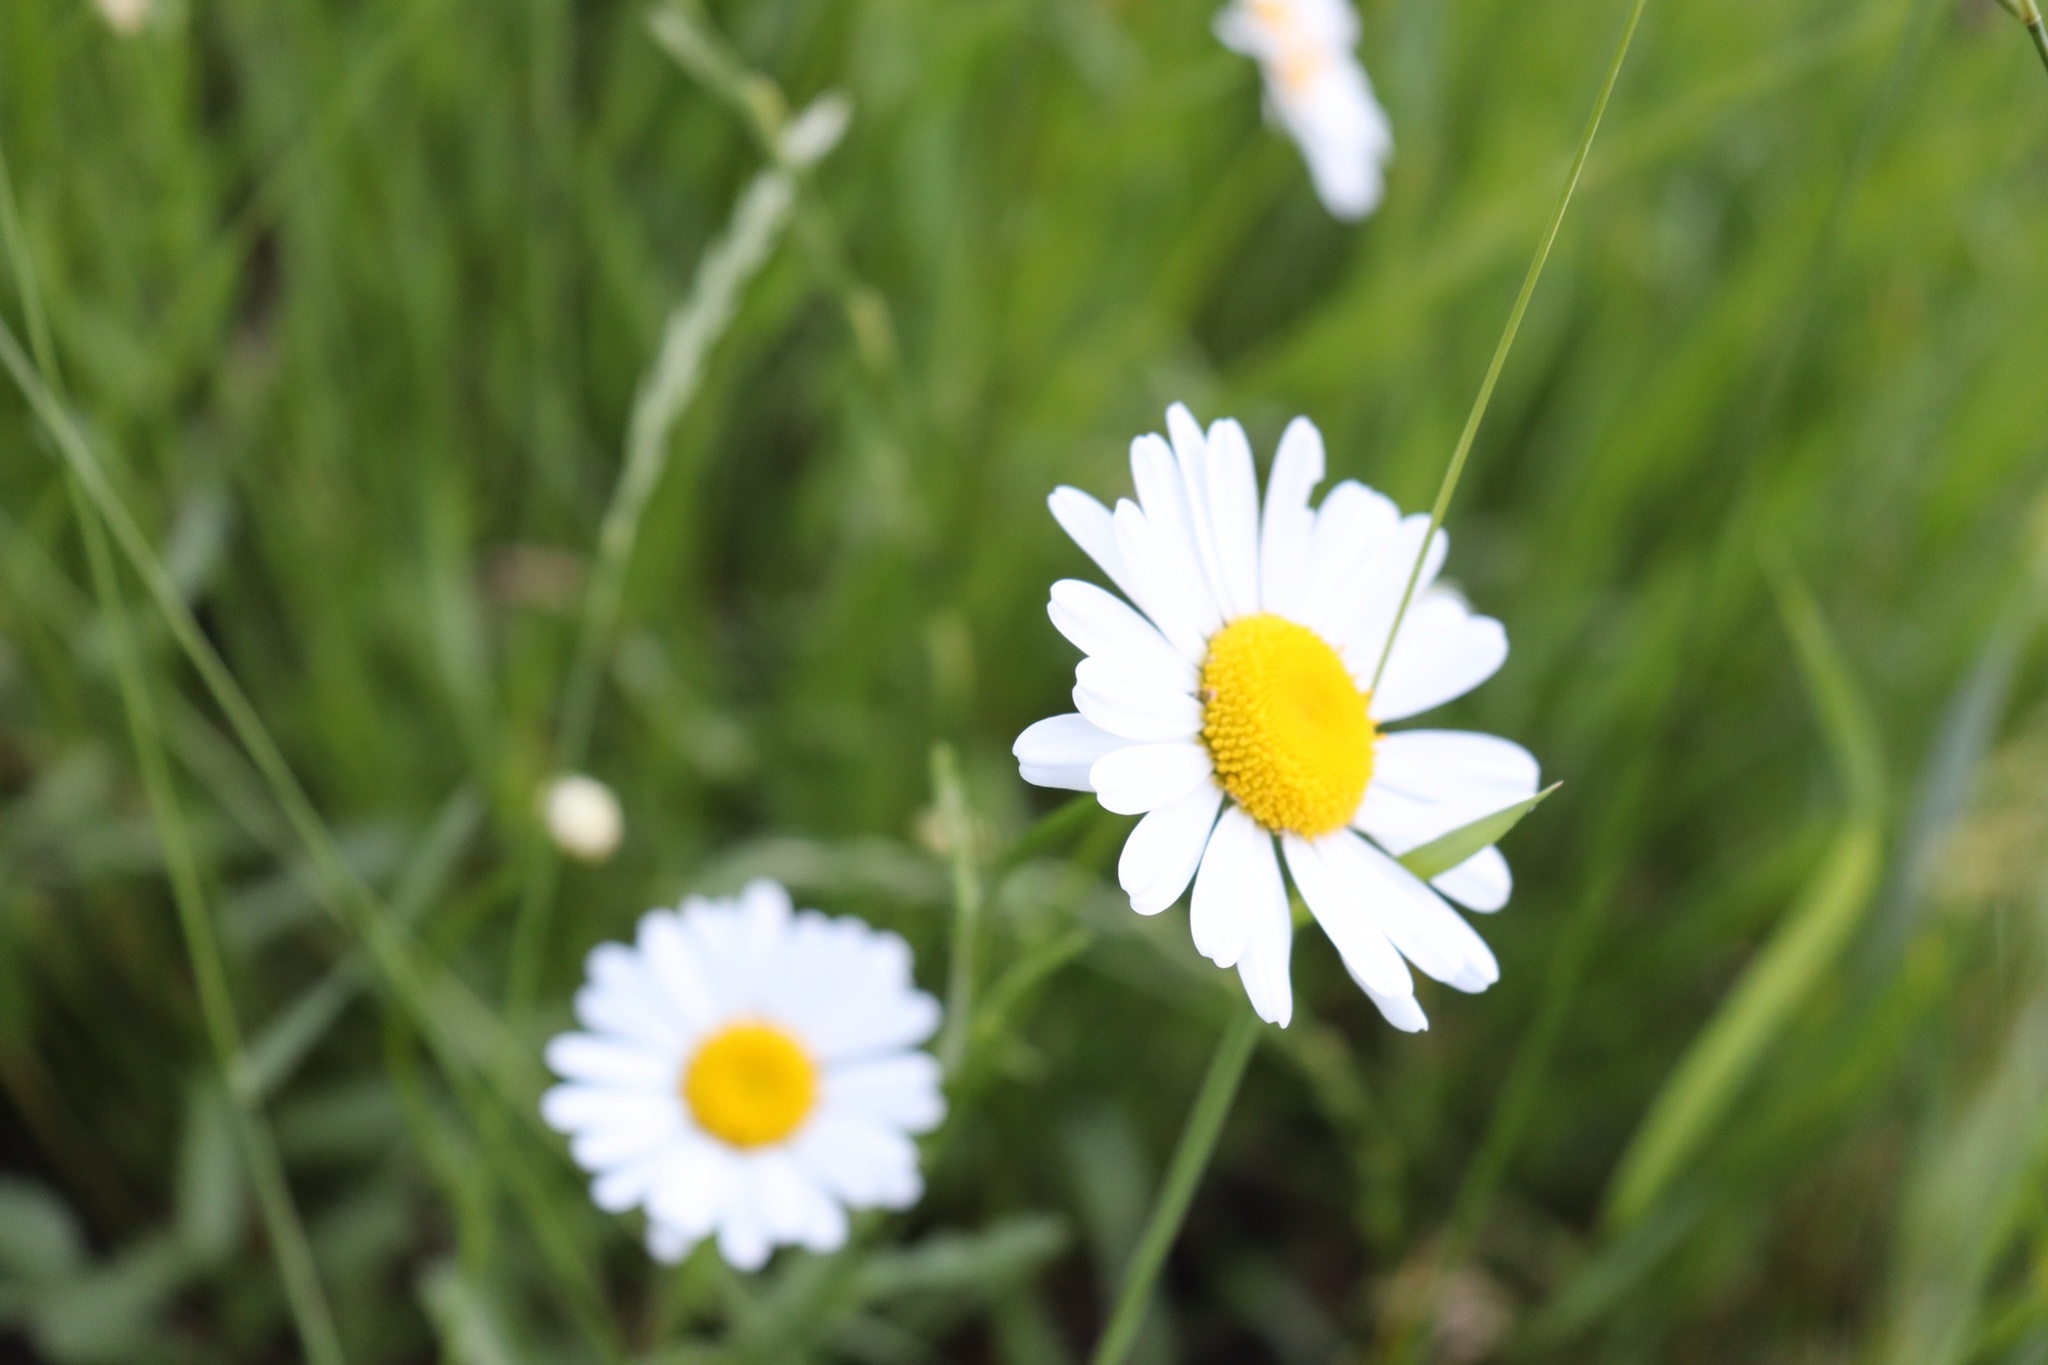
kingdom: Plantae
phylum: Tracheophyta
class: Magnoliopsida
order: Asterales
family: Asteraceae
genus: Leucanthemum
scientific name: Leucanthemum vulgare
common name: Oxeye daisy
